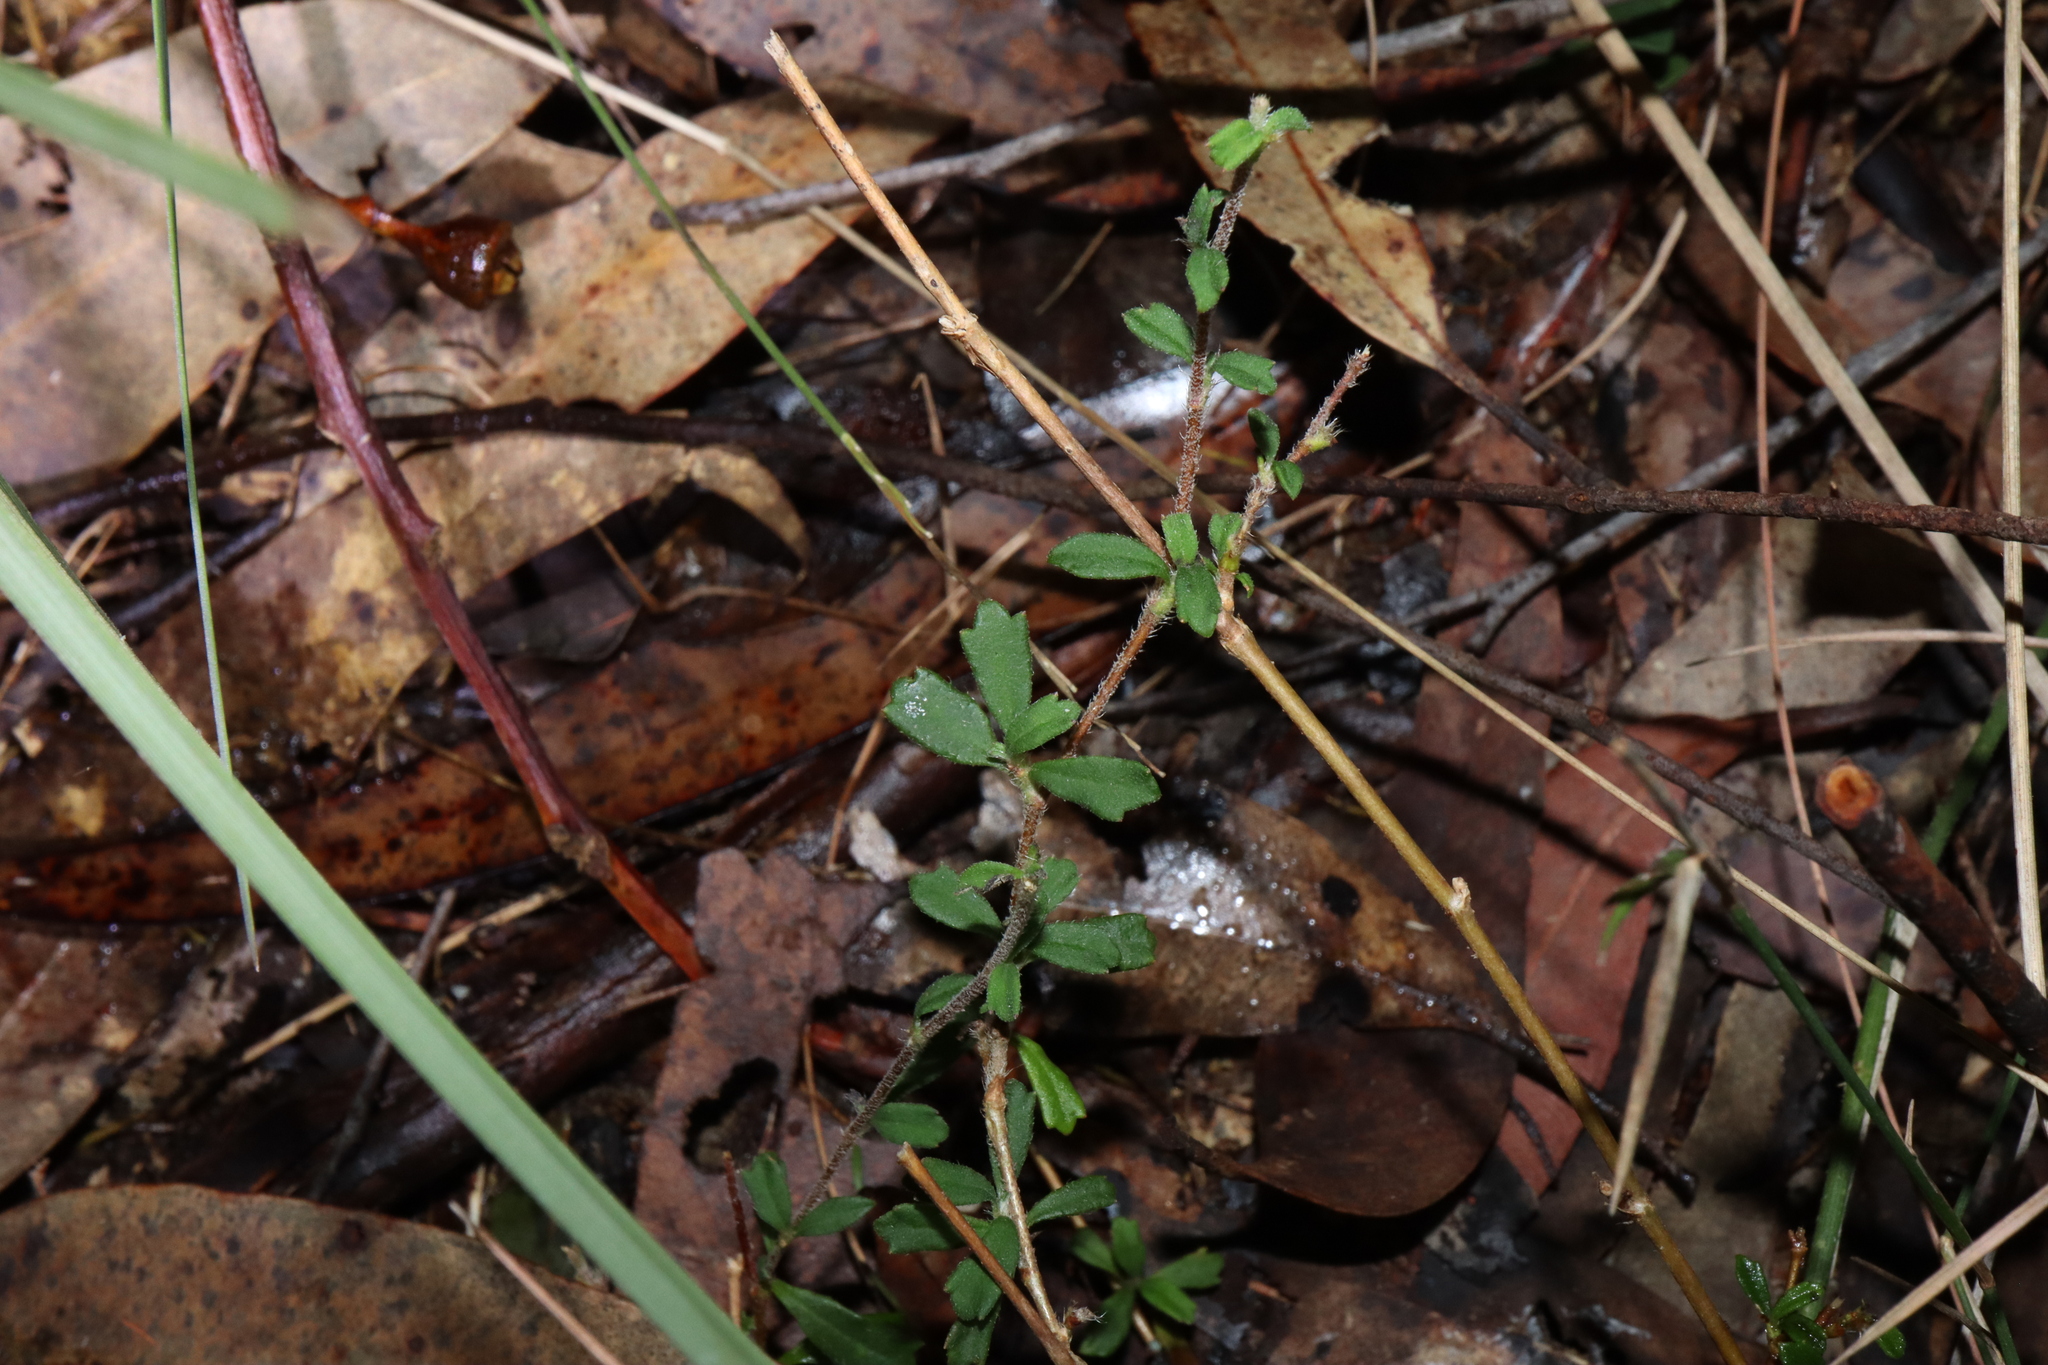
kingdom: Plantae
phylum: Tracheophyta
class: Magnoliopsida
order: Apiales
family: Apiaceae
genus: Xanthosia
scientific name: Xanthosia tridentata
